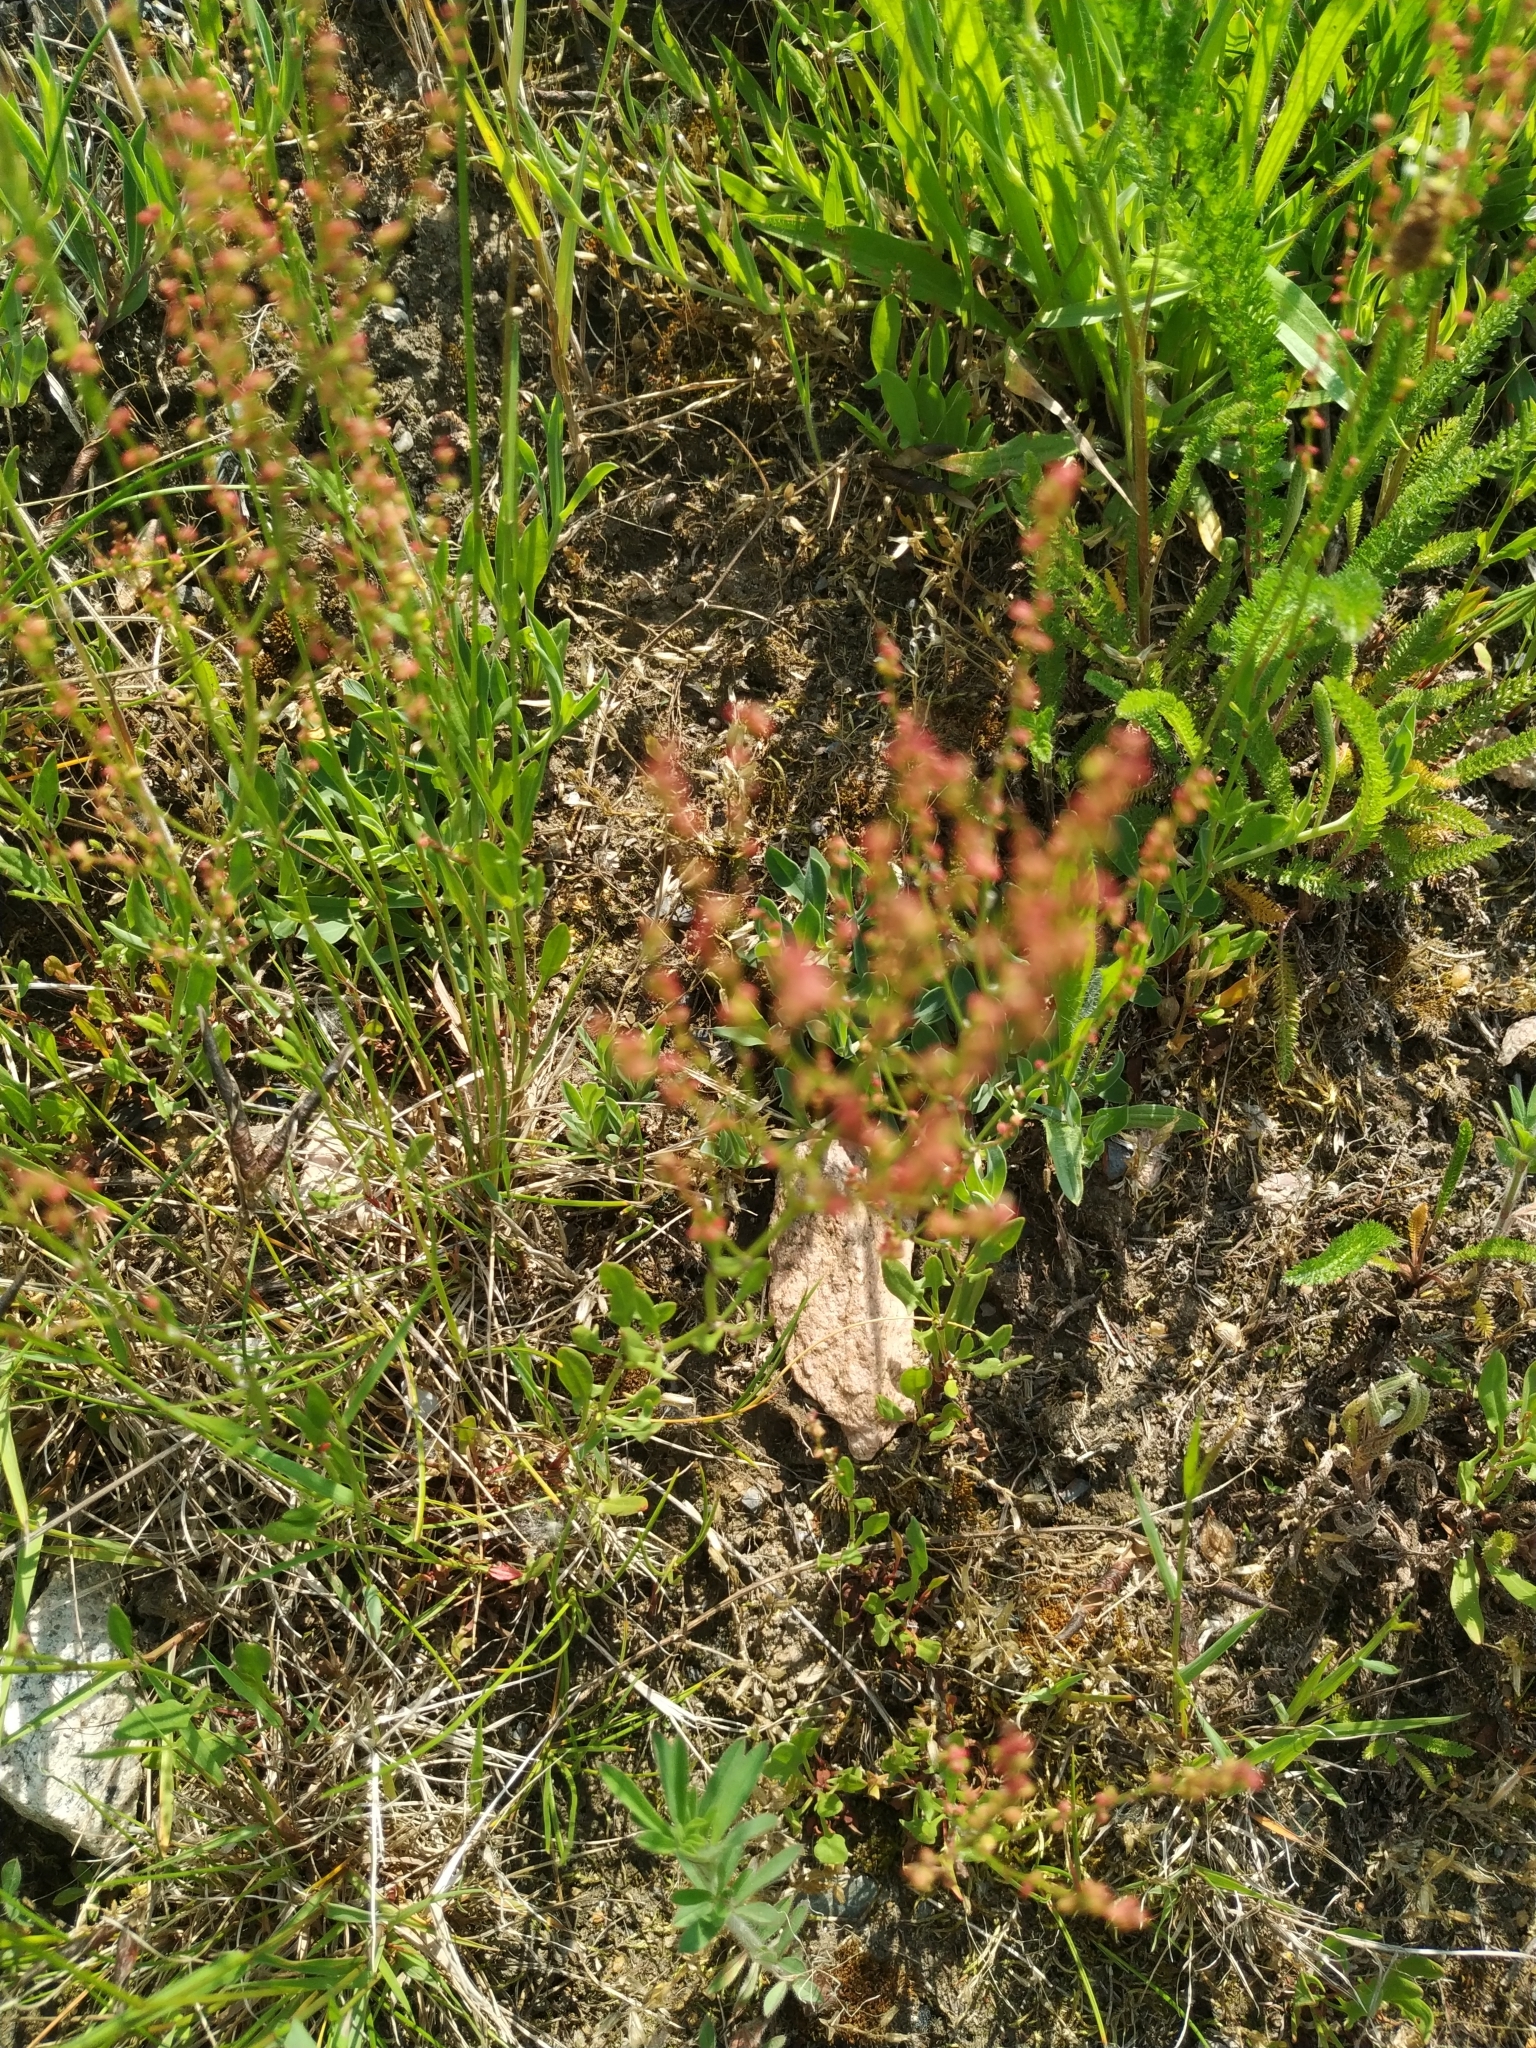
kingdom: Plantae
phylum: Tracheophyta
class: Magnoliopsida
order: Caryophyllales
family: Polygonaceae
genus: Rumex
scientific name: Rumex acetosella
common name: Common sheep sorrel
